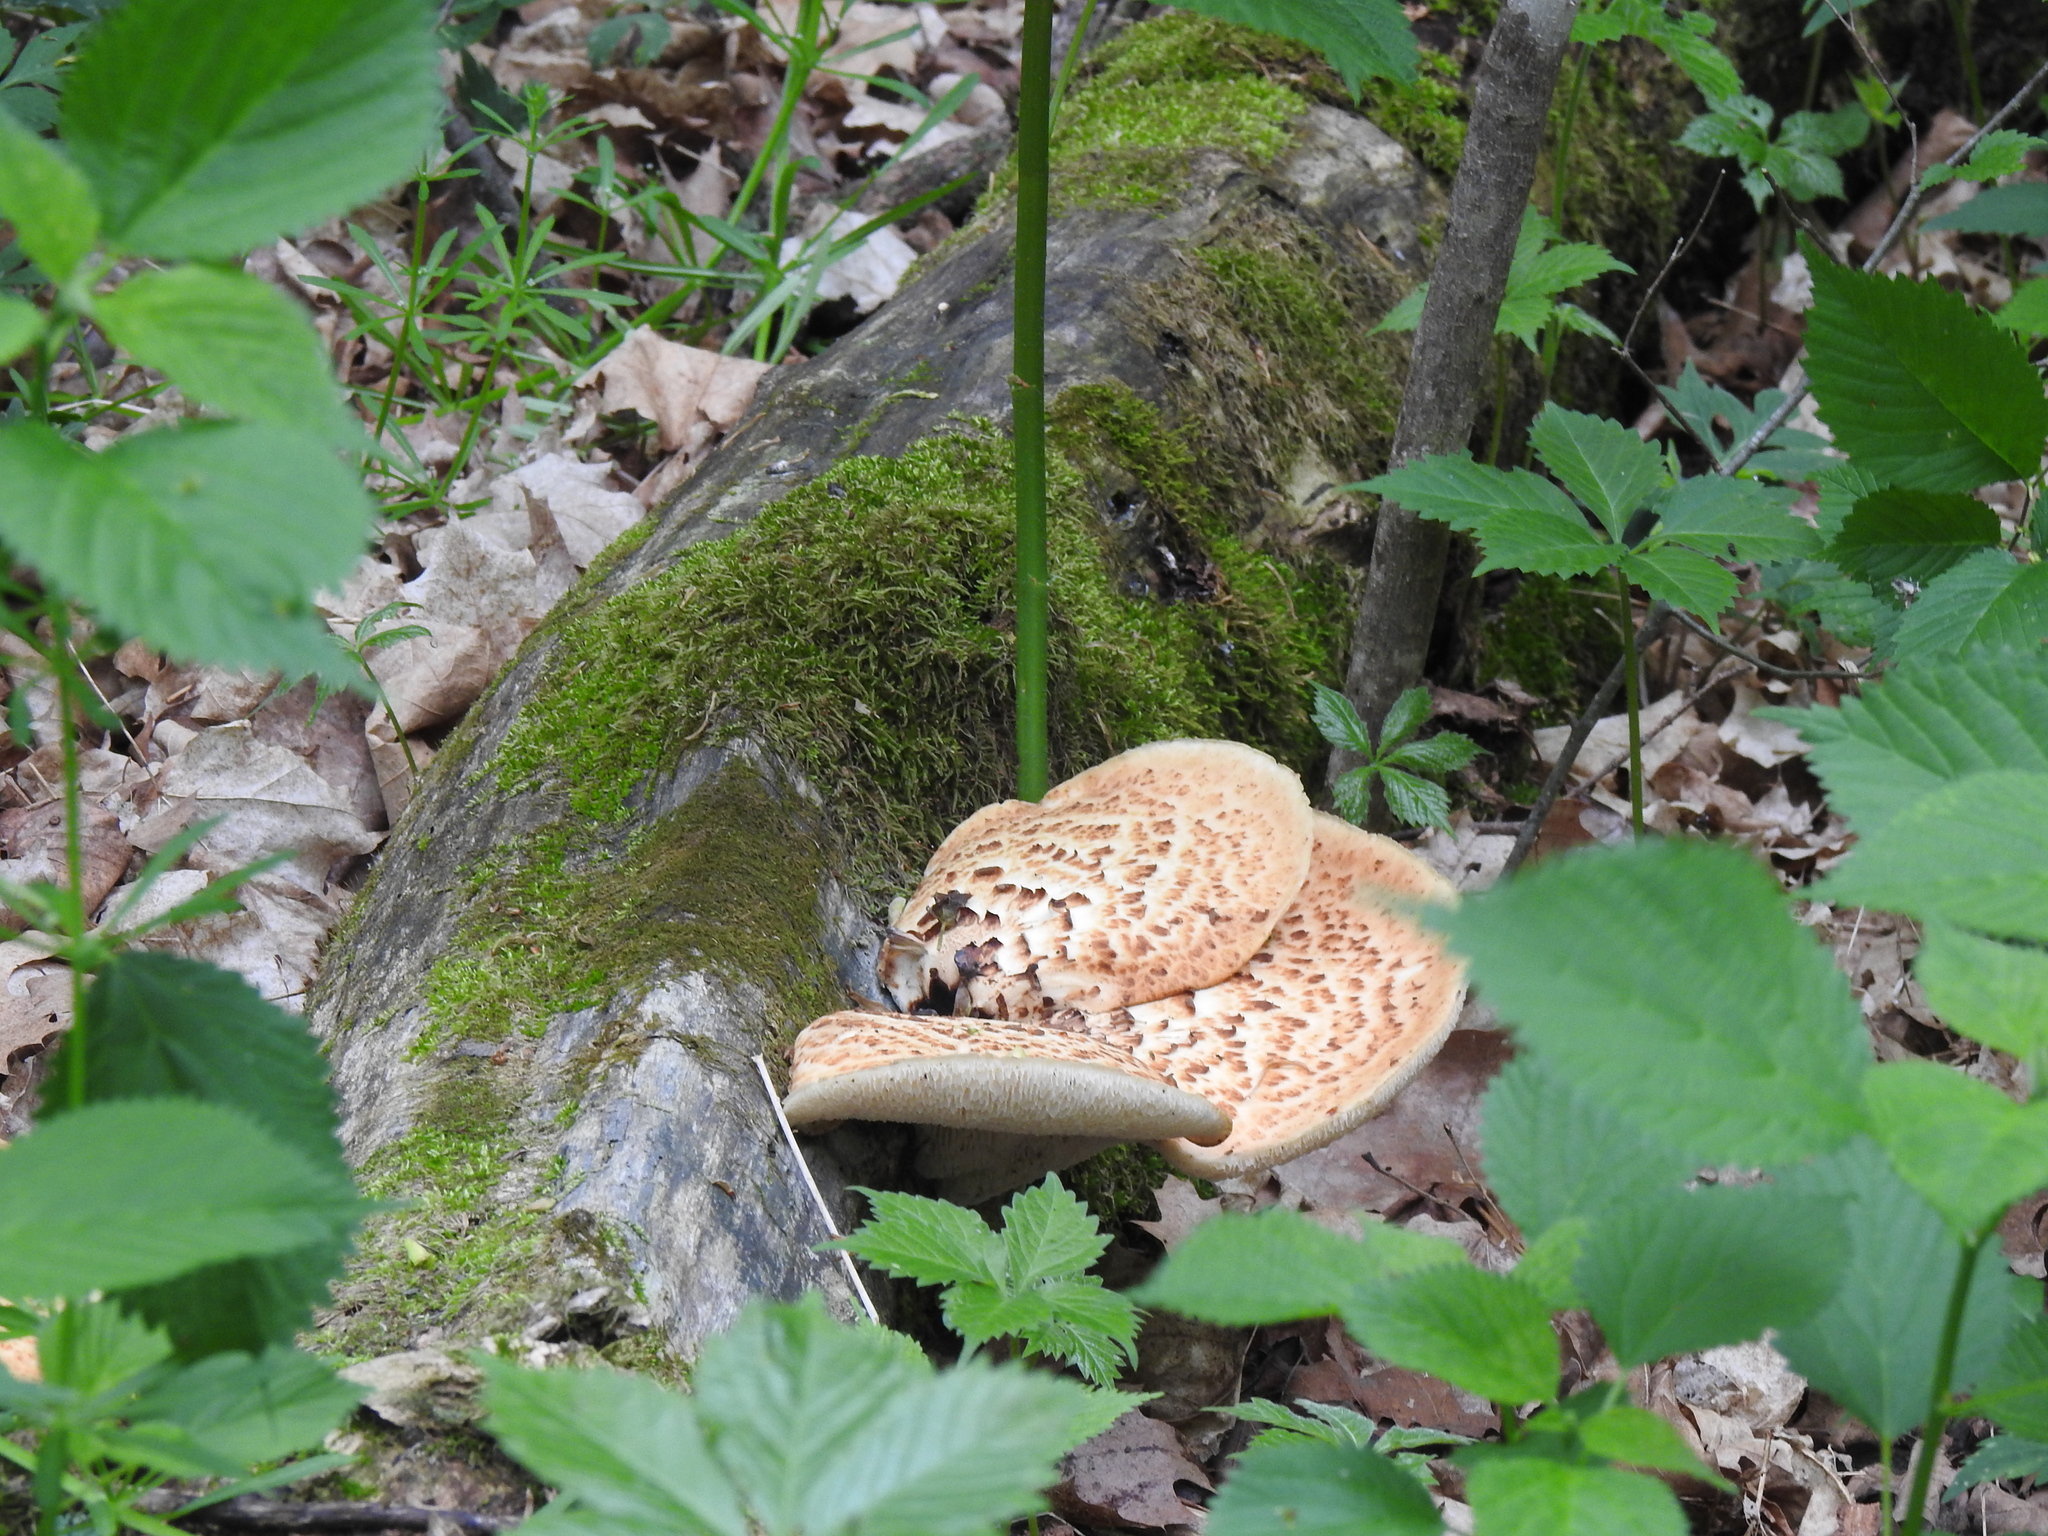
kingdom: Fungi
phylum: Basidiomycota
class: Agaricomycetes
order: Polyporales
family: Polyporaceae
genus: Cerioporus
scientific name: Cerioporus squamosus
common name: Dryad's saddle
